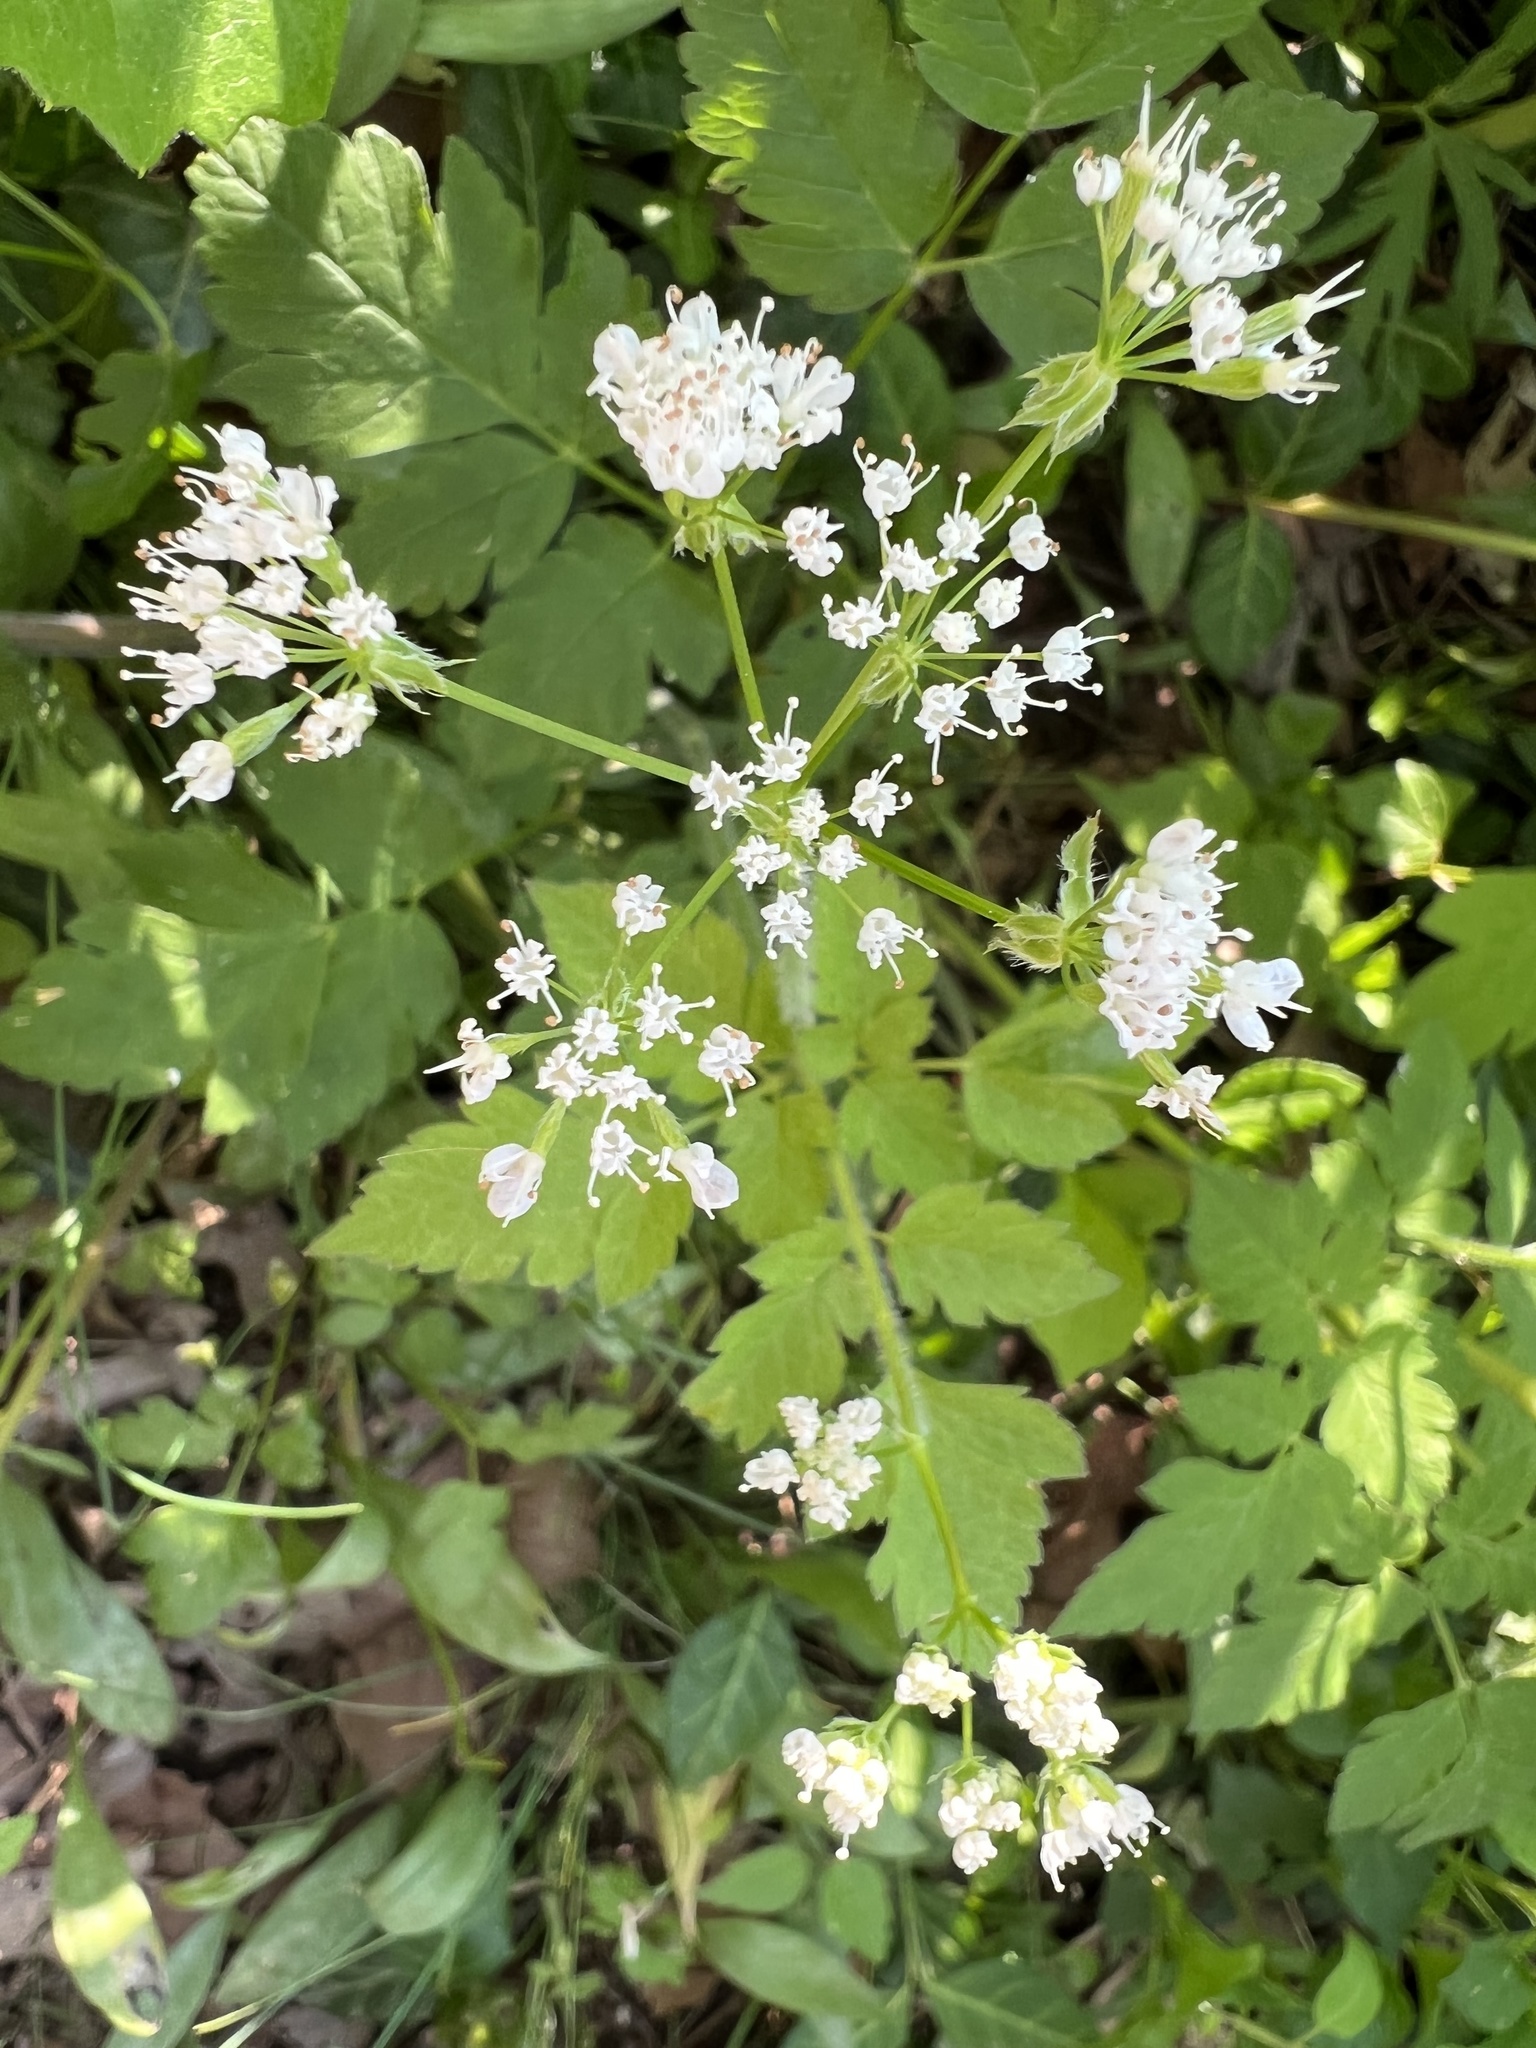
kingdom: Plantae
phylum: Tracheophyta
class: Magnoliopsida
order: Apiales
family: Apiaceae
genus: Osmorhiza
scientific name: Osmorhiza longistylis
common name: Smooth sweet cicely
